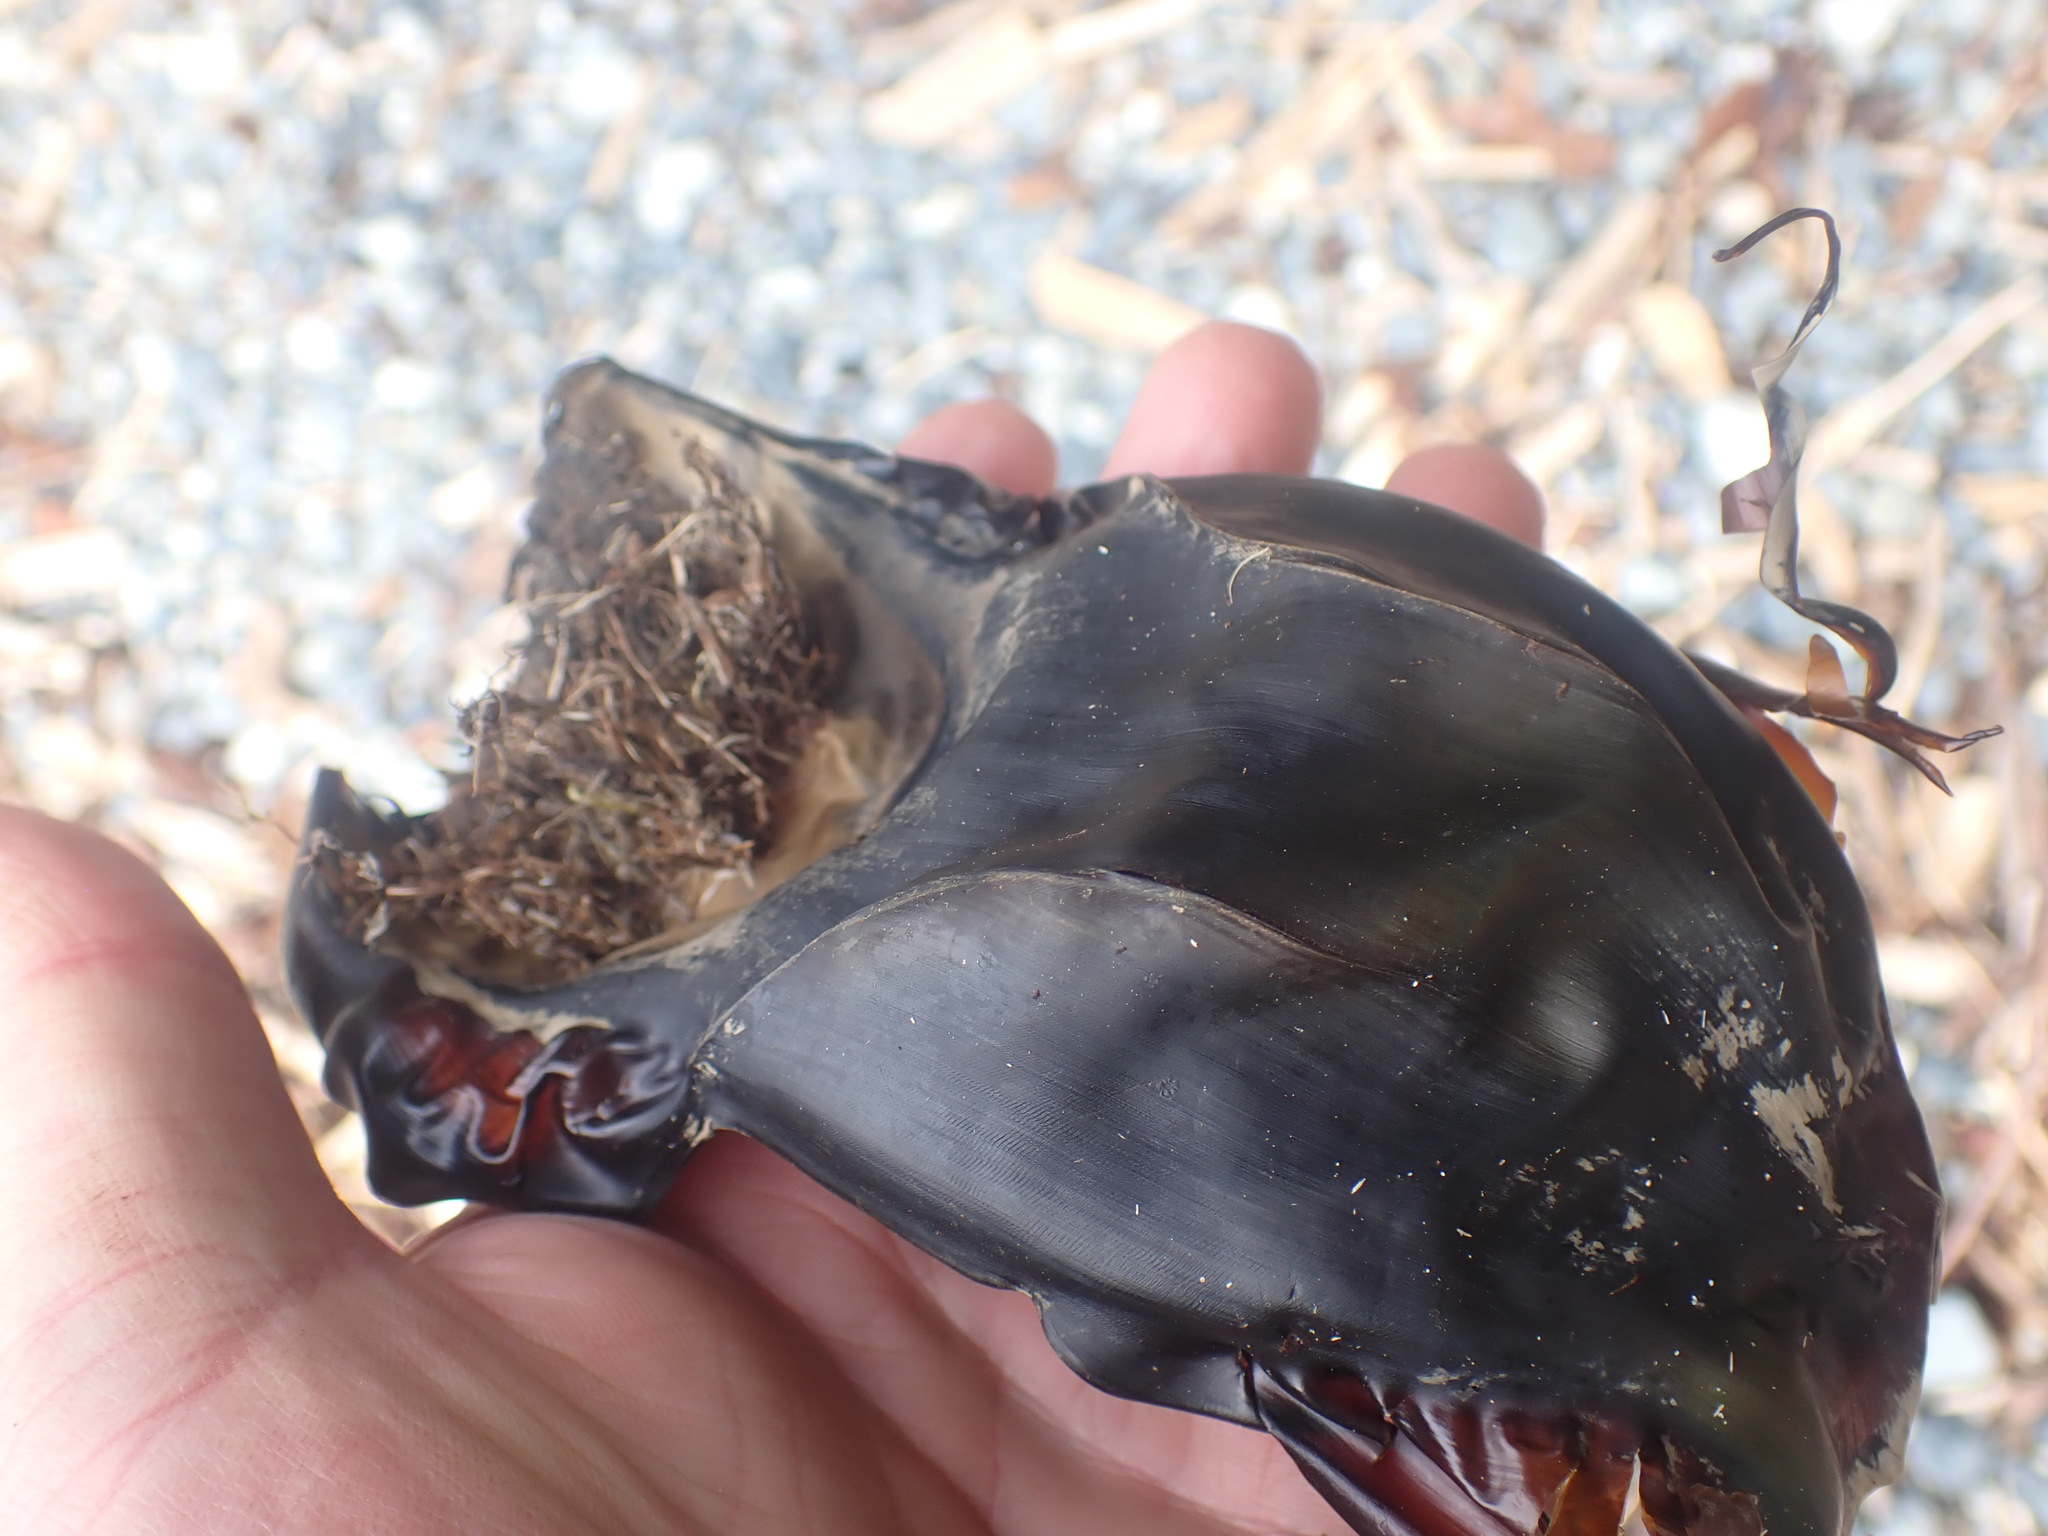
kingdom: Animalia
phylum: Chordata
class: Elasmobranchii
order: Rajiformes
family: Rajidae
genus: Beringraja
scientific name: Beringraja binoculata
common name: Big skate
